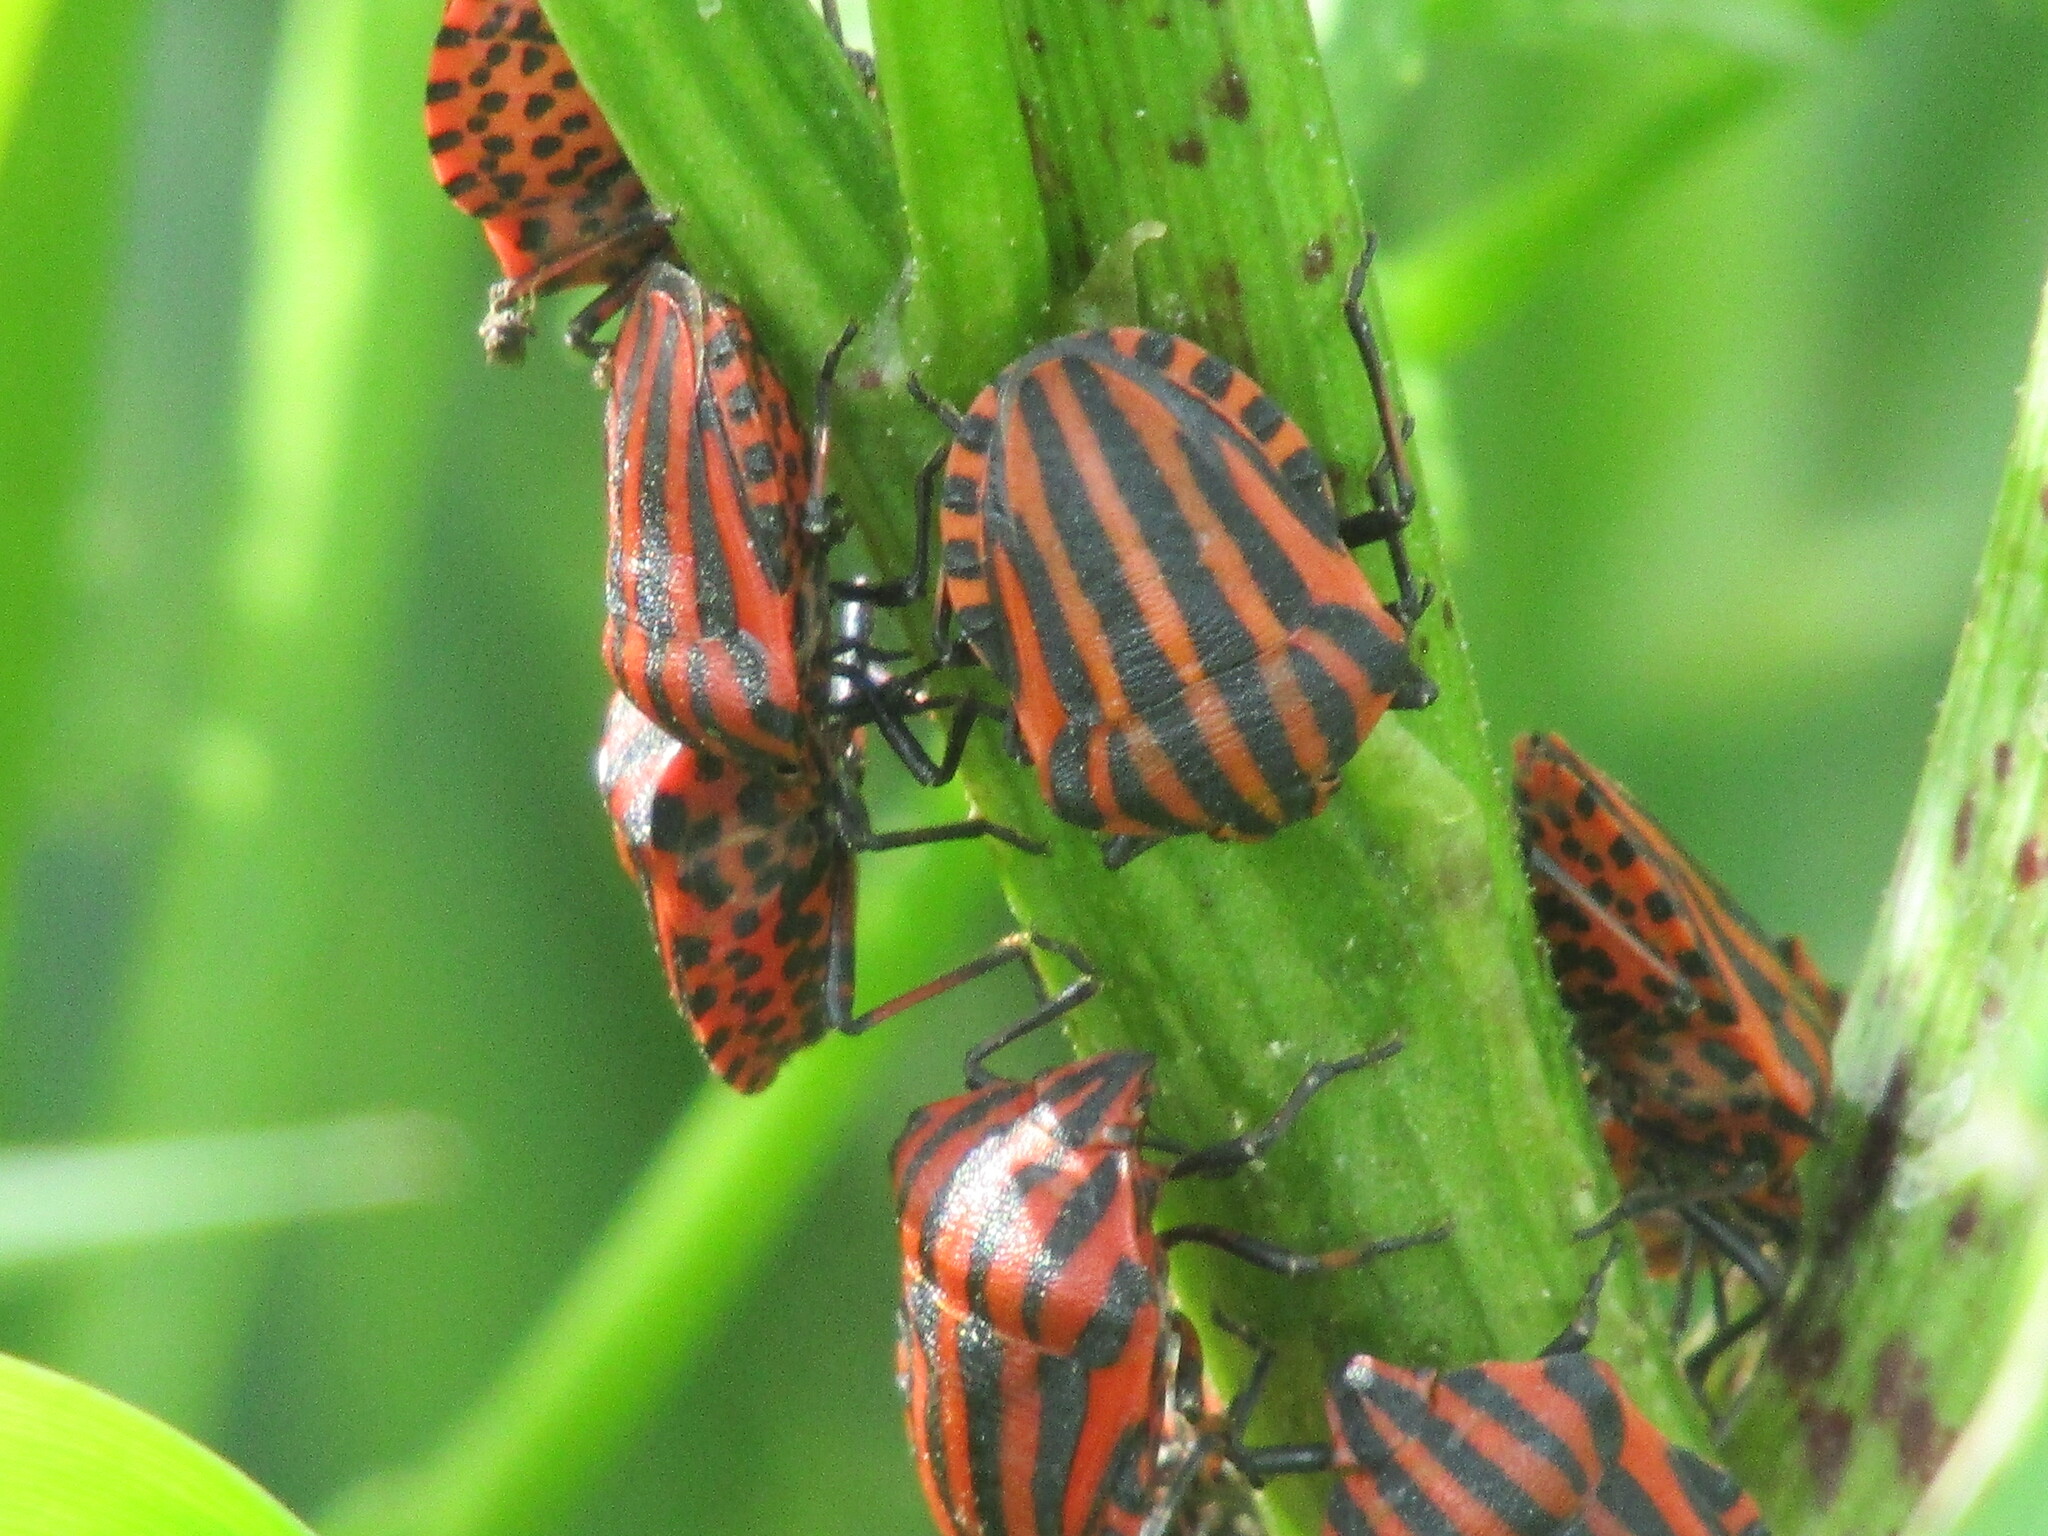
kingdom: Animalia
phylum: Arthropoda
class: Insecta
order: Hemiptera
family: Pentatomidae
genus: Graphosoma
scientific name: Graphosoma italicum
